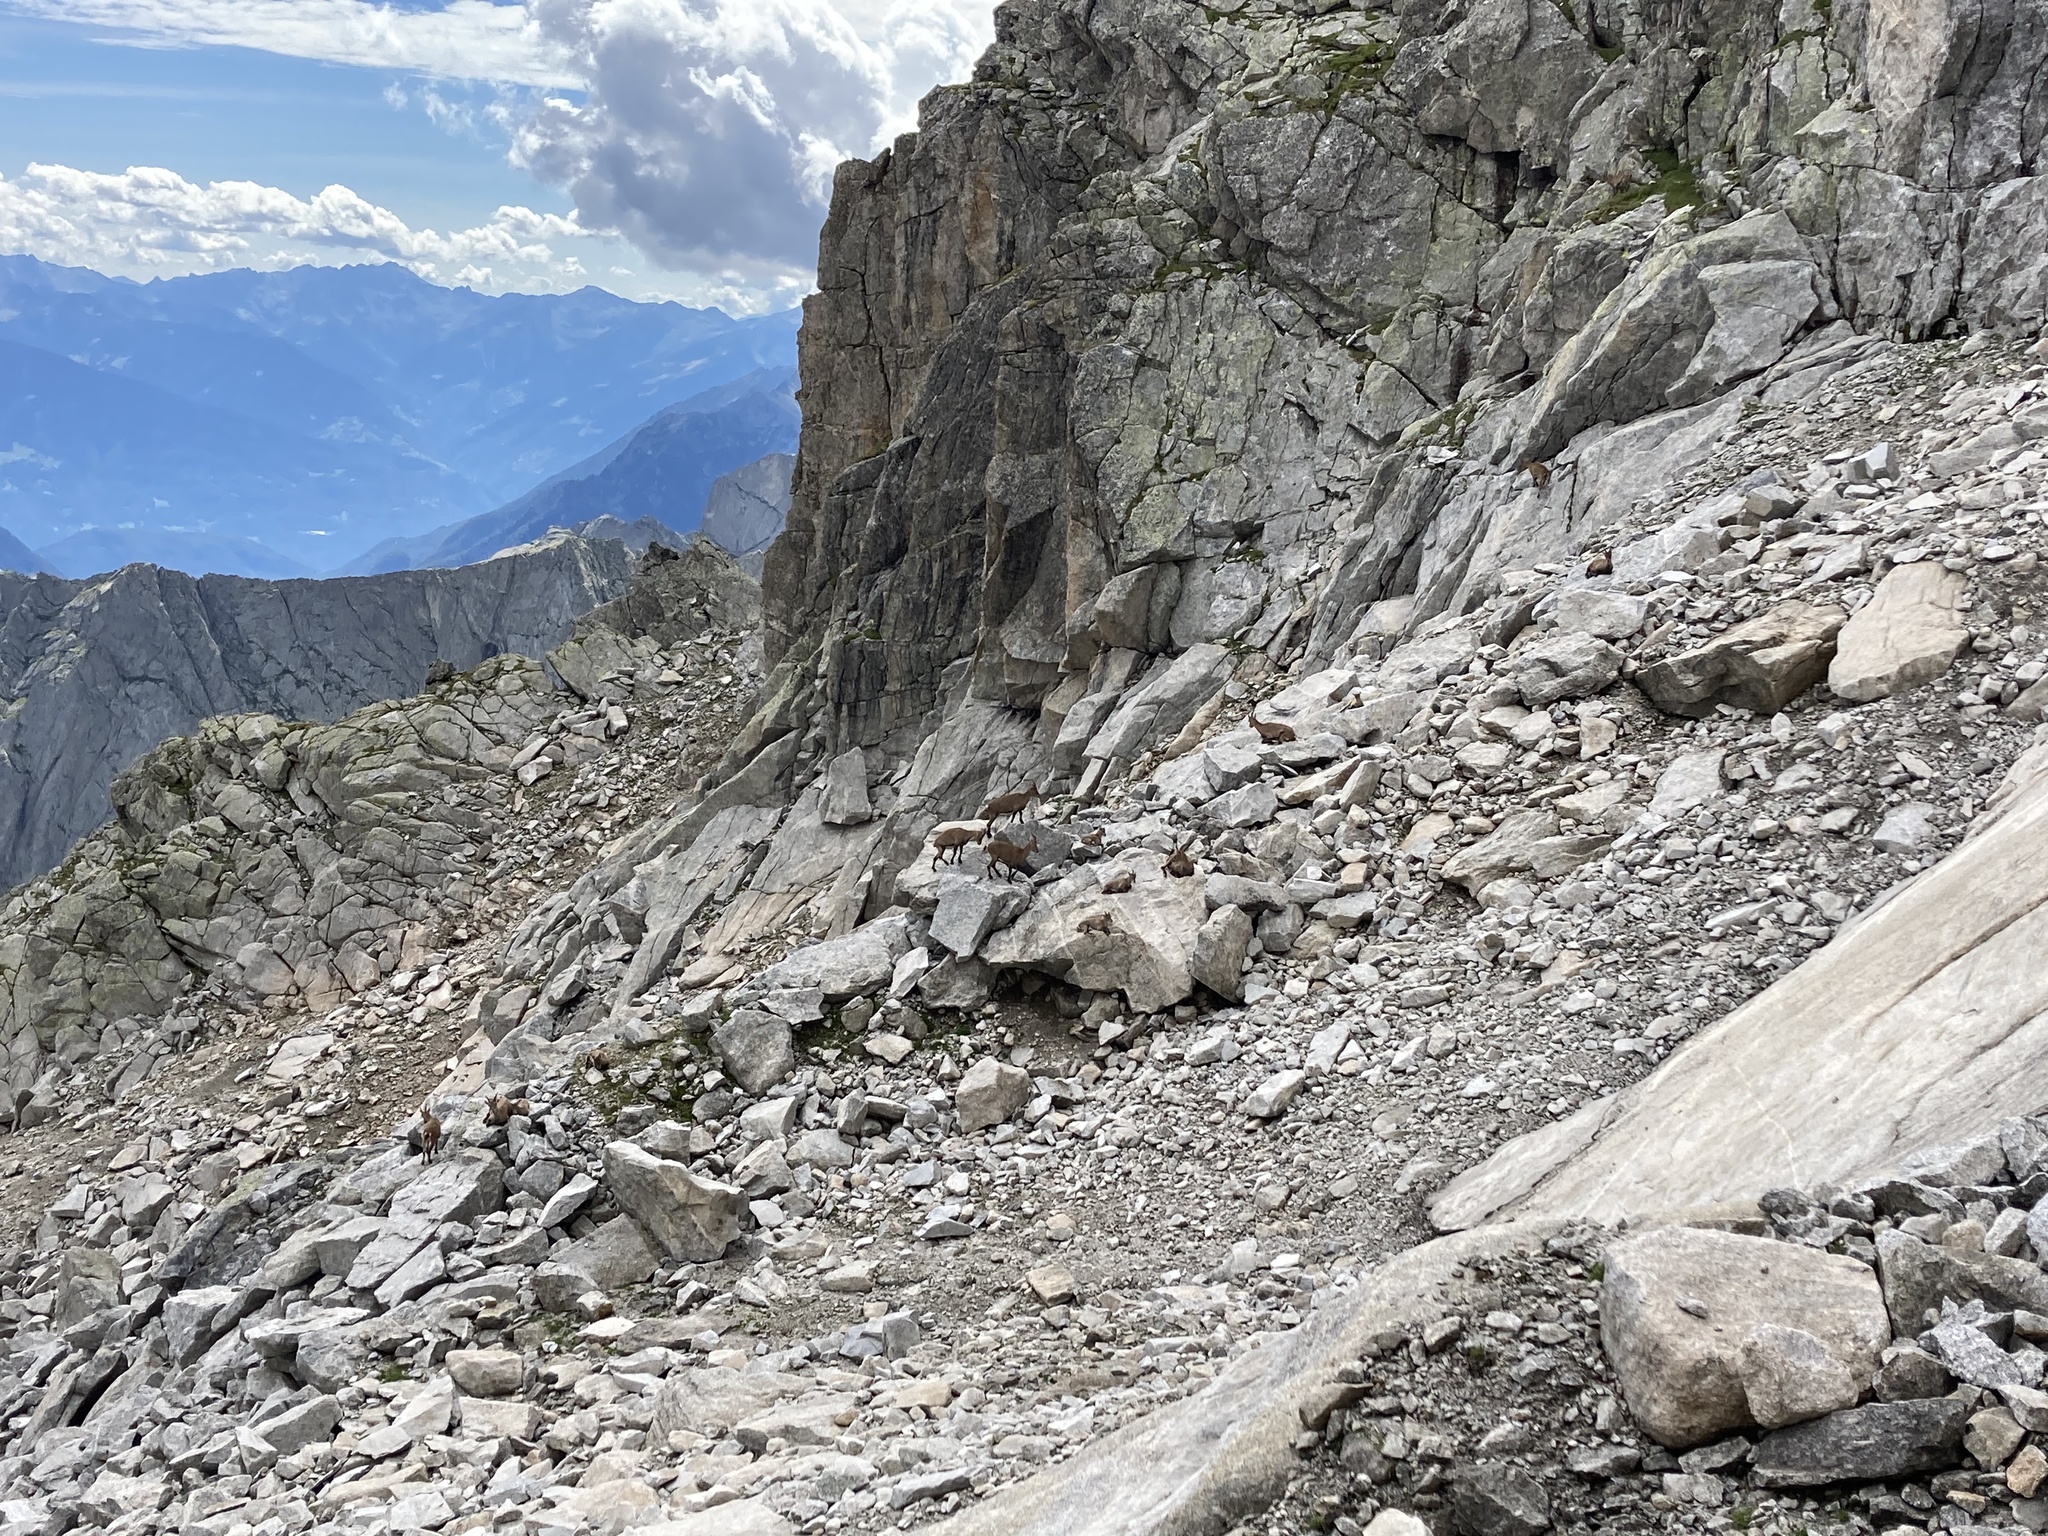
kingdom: Animalia
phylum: Chordata
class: Mammalia
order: Artiodactyla
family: Bovidae
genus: Capra
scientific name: Capra ibex
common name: Alpine ibex
